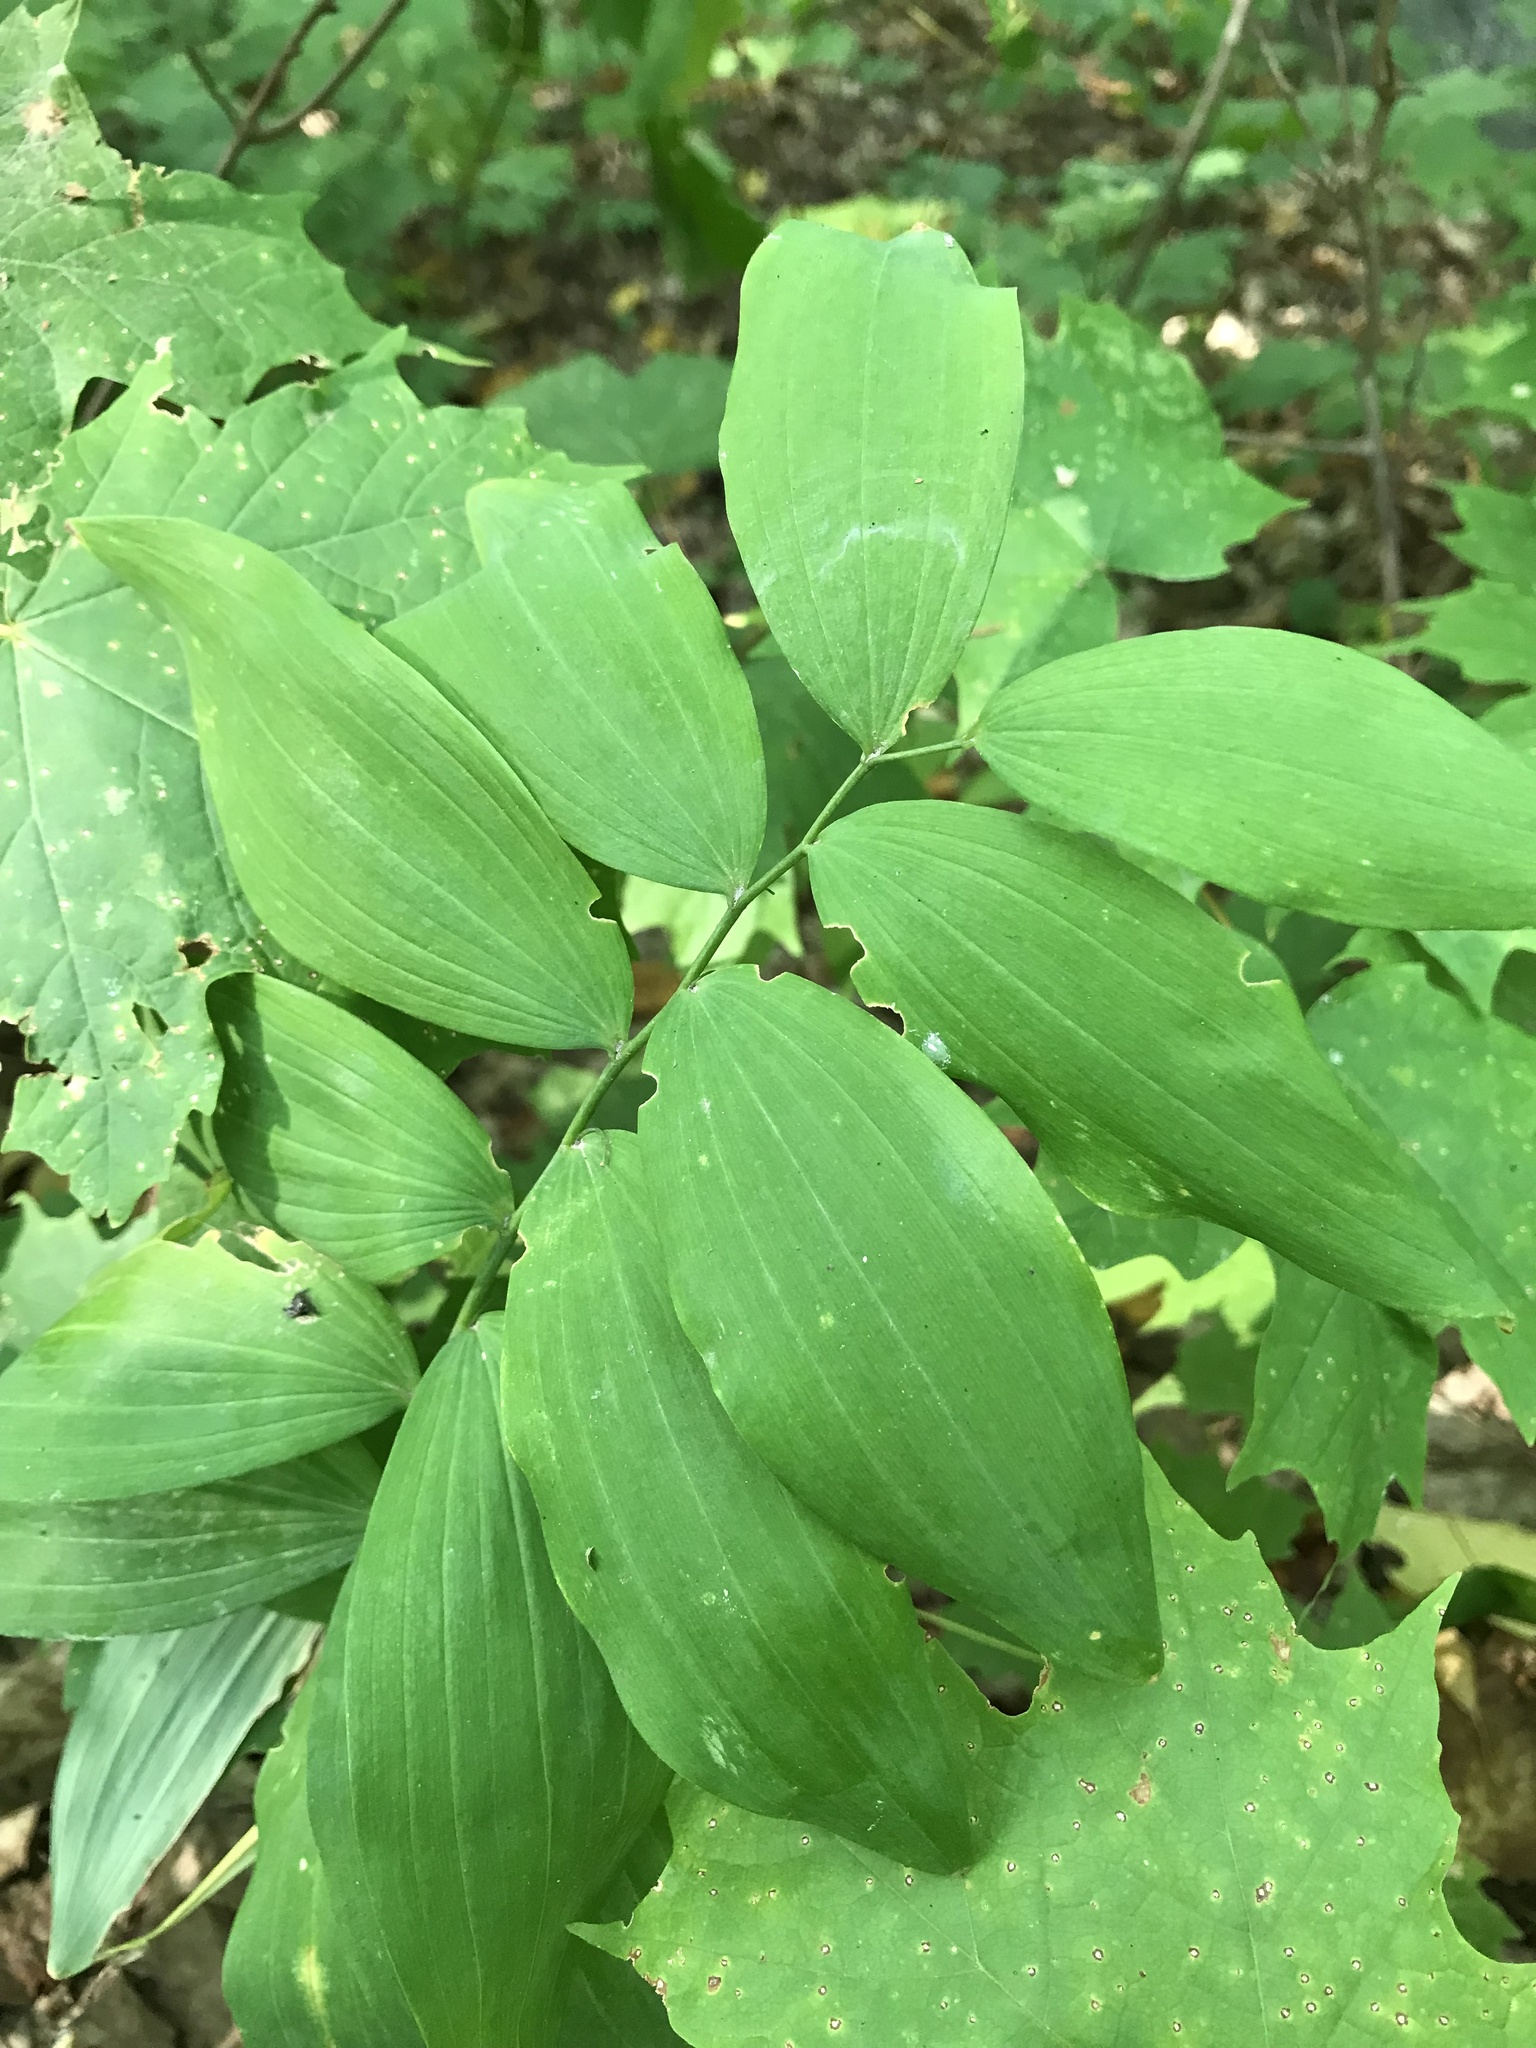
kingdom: Plantae
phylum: Tracheophyta
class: Liliopsida
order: Asparagales
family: Asparagaceae
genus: Polygonatum
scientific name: Polygonatum pubescens
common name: Downy solomon's seal
